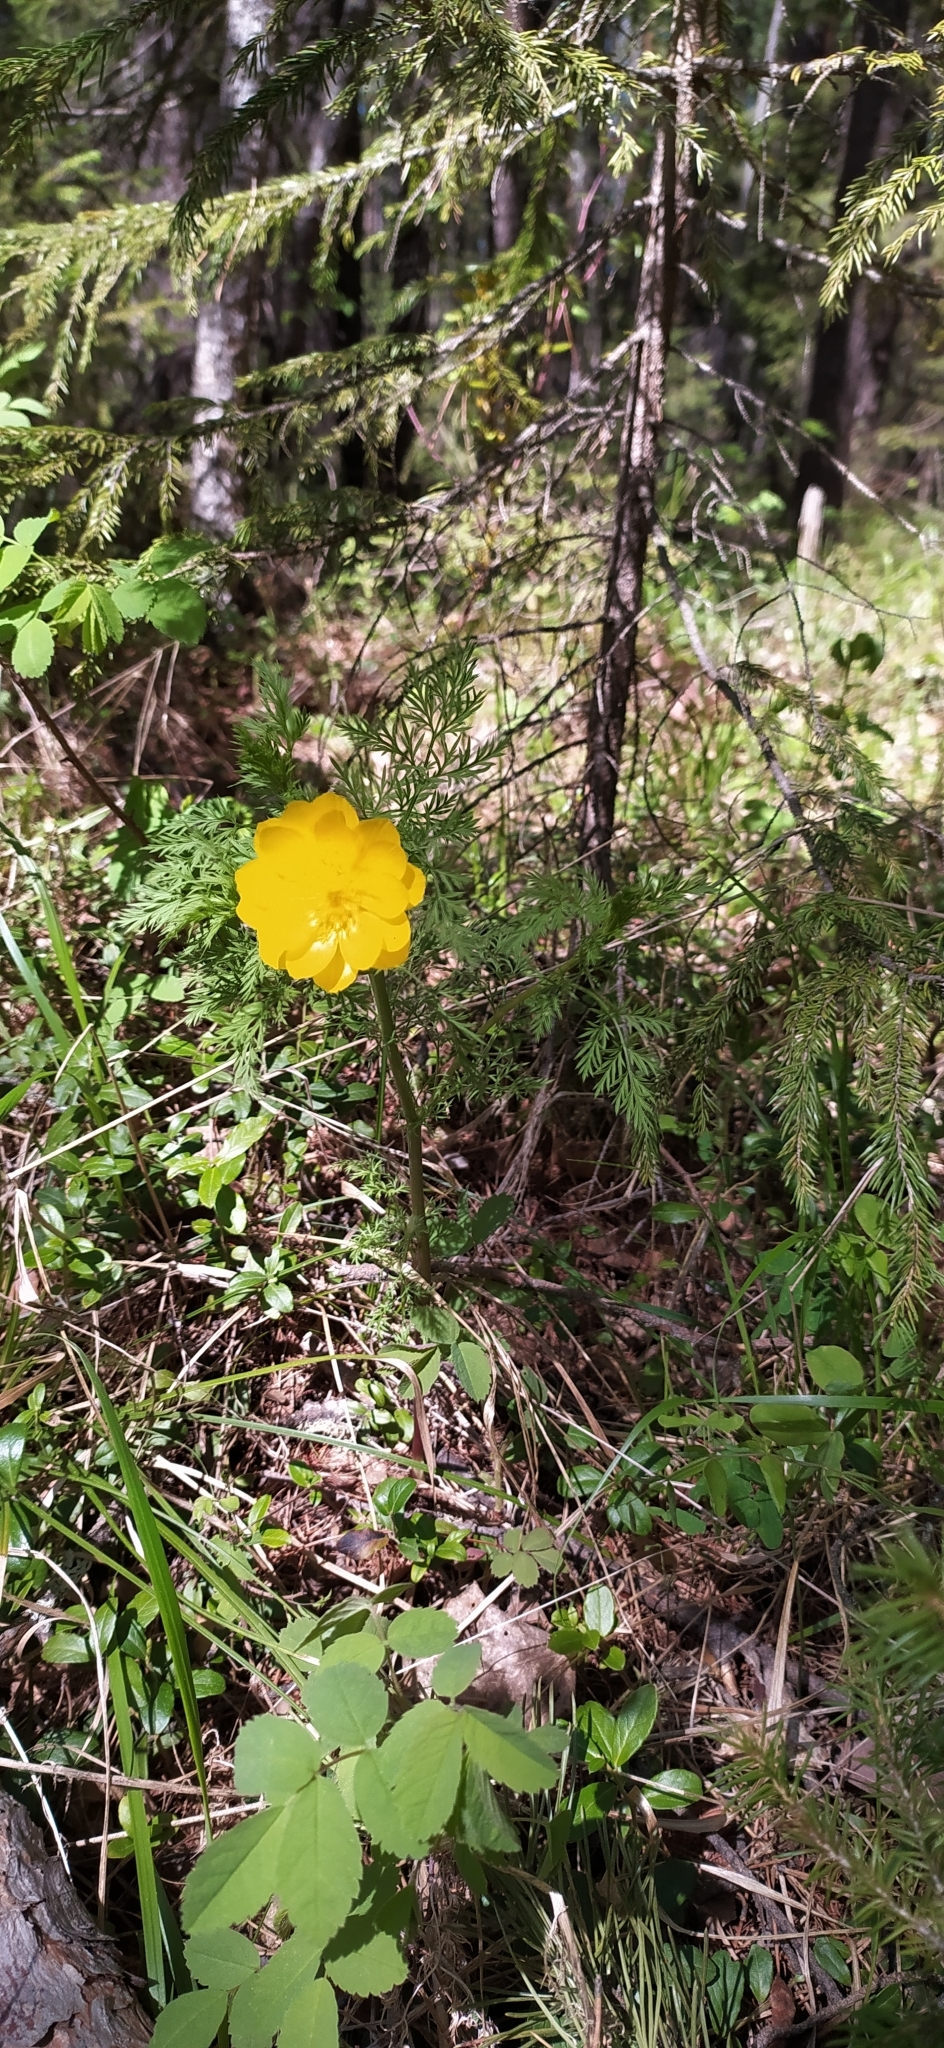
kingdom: Plantae
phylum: Tracheophyta
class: Magnoliopsida
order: Ranunculales
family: Ranunculaceae
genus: Adonis
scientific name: Adonis
